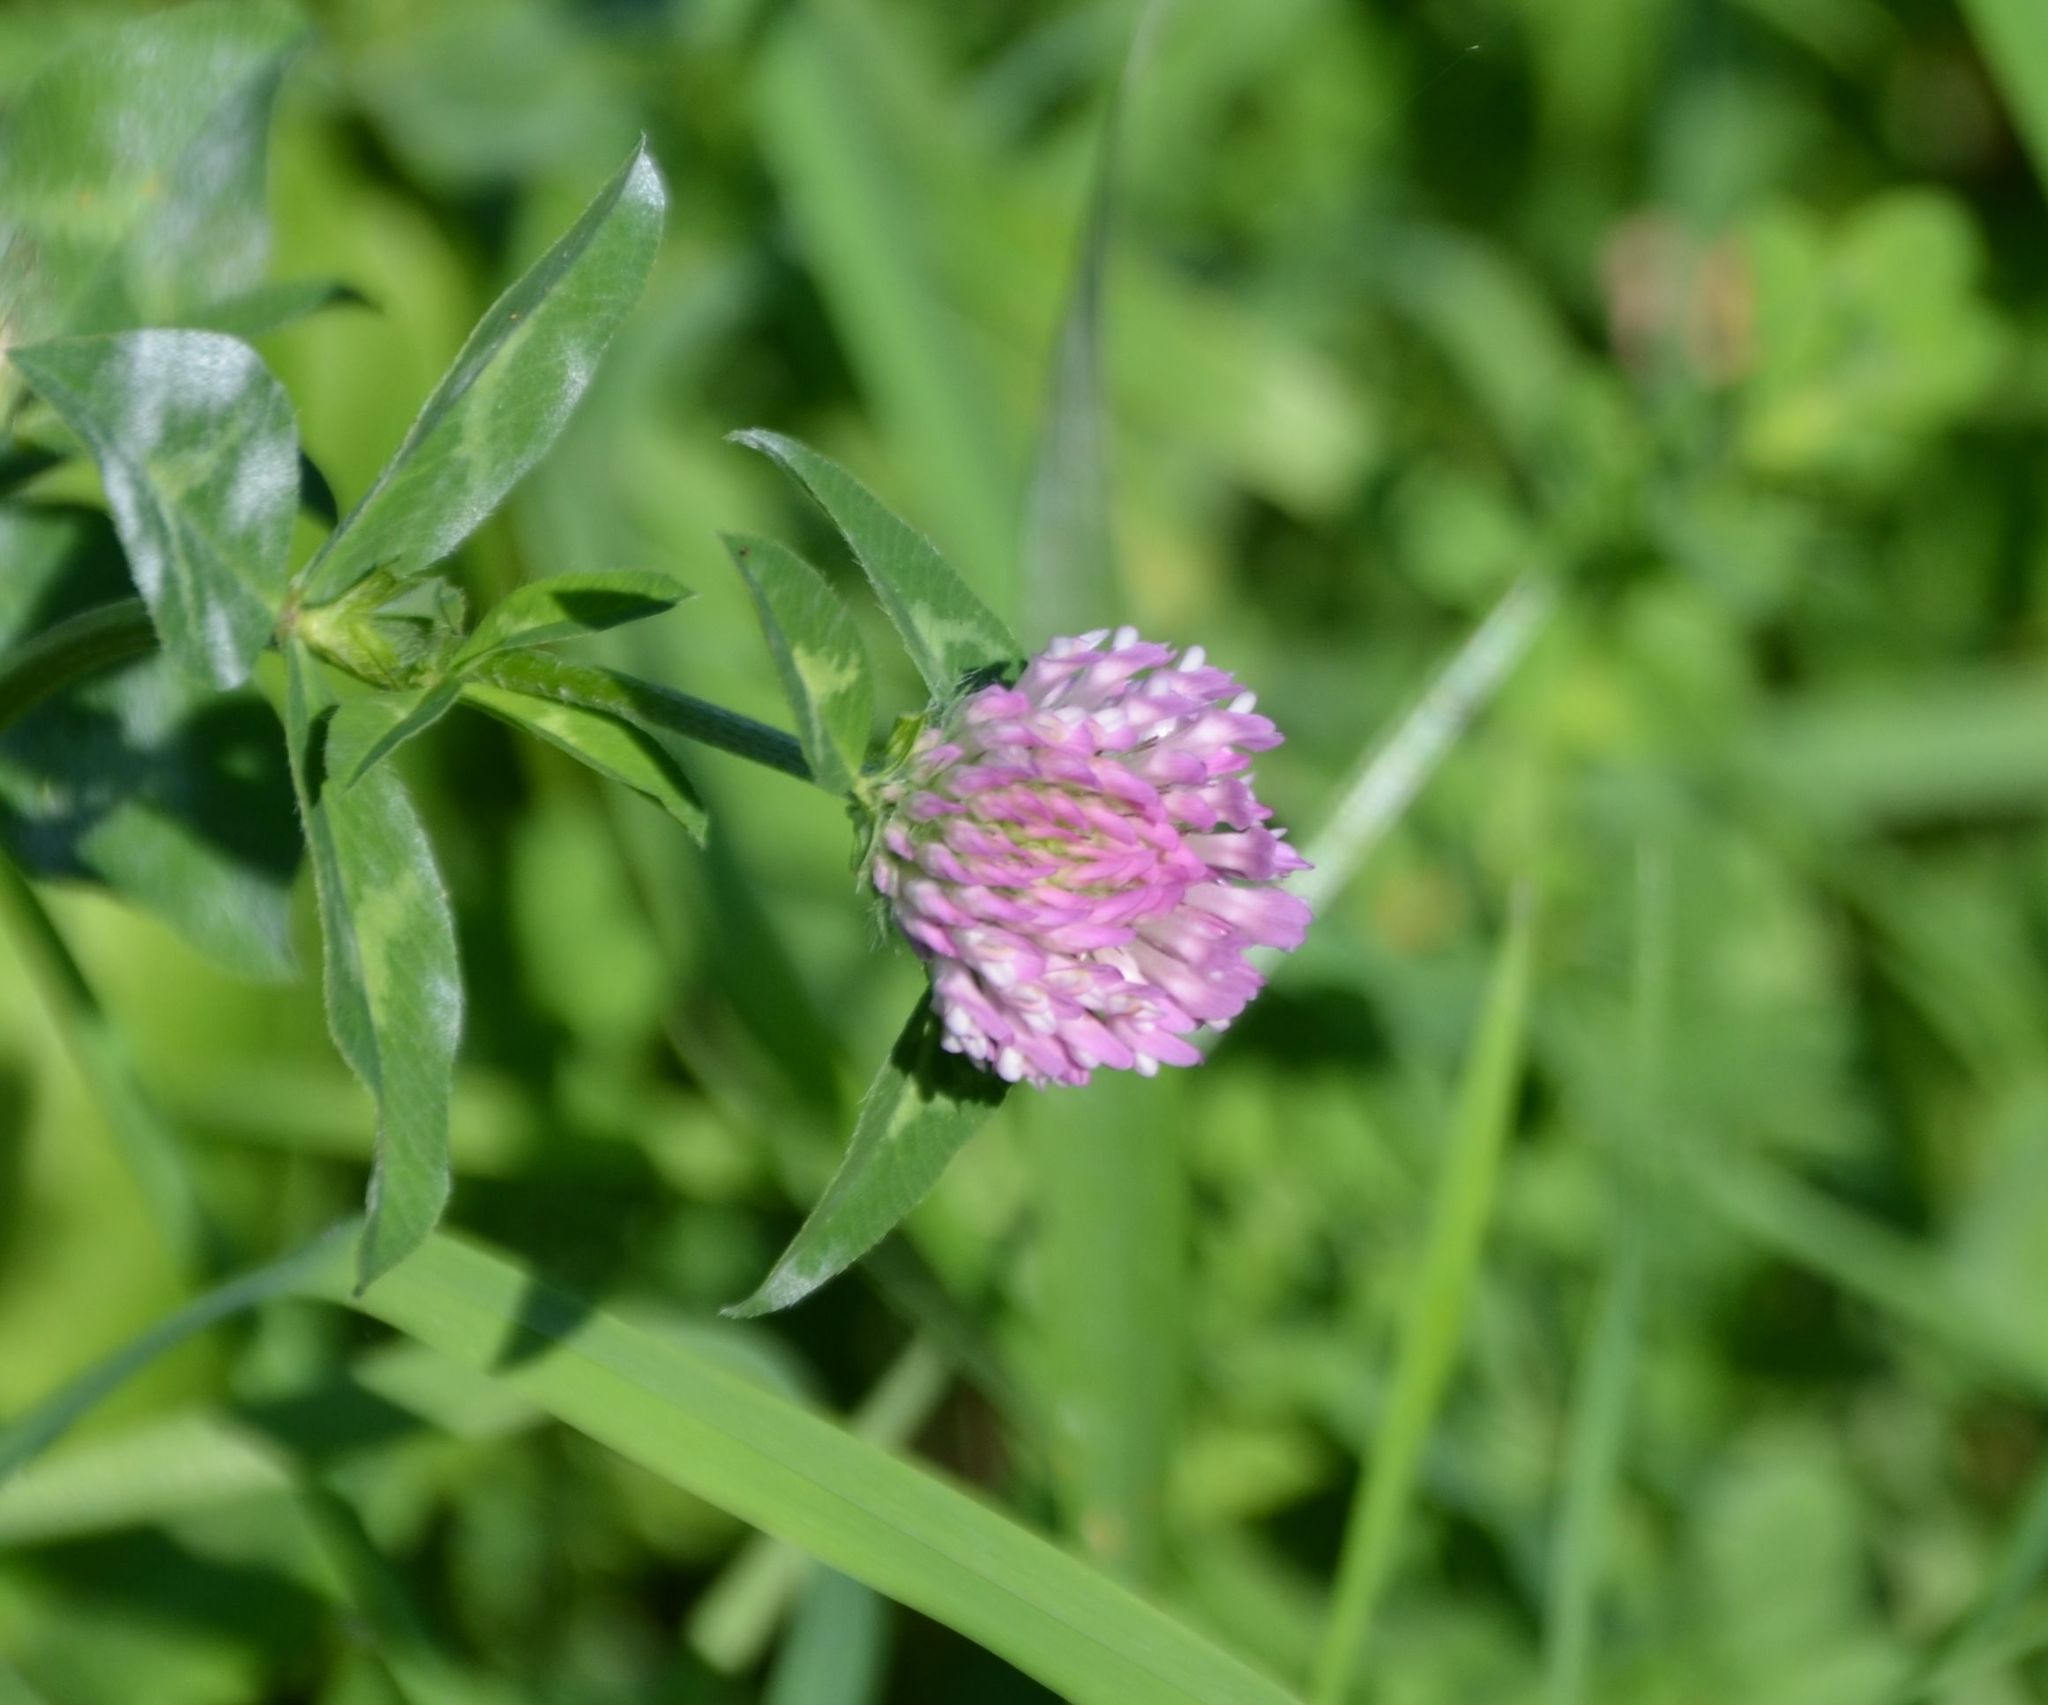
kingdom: Plantae
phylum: Tracheophyta
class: Magnoliopsida
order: Fabales
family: Fabaceae
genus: Trifolium
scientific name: Trifolium pratense
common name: Red clover
